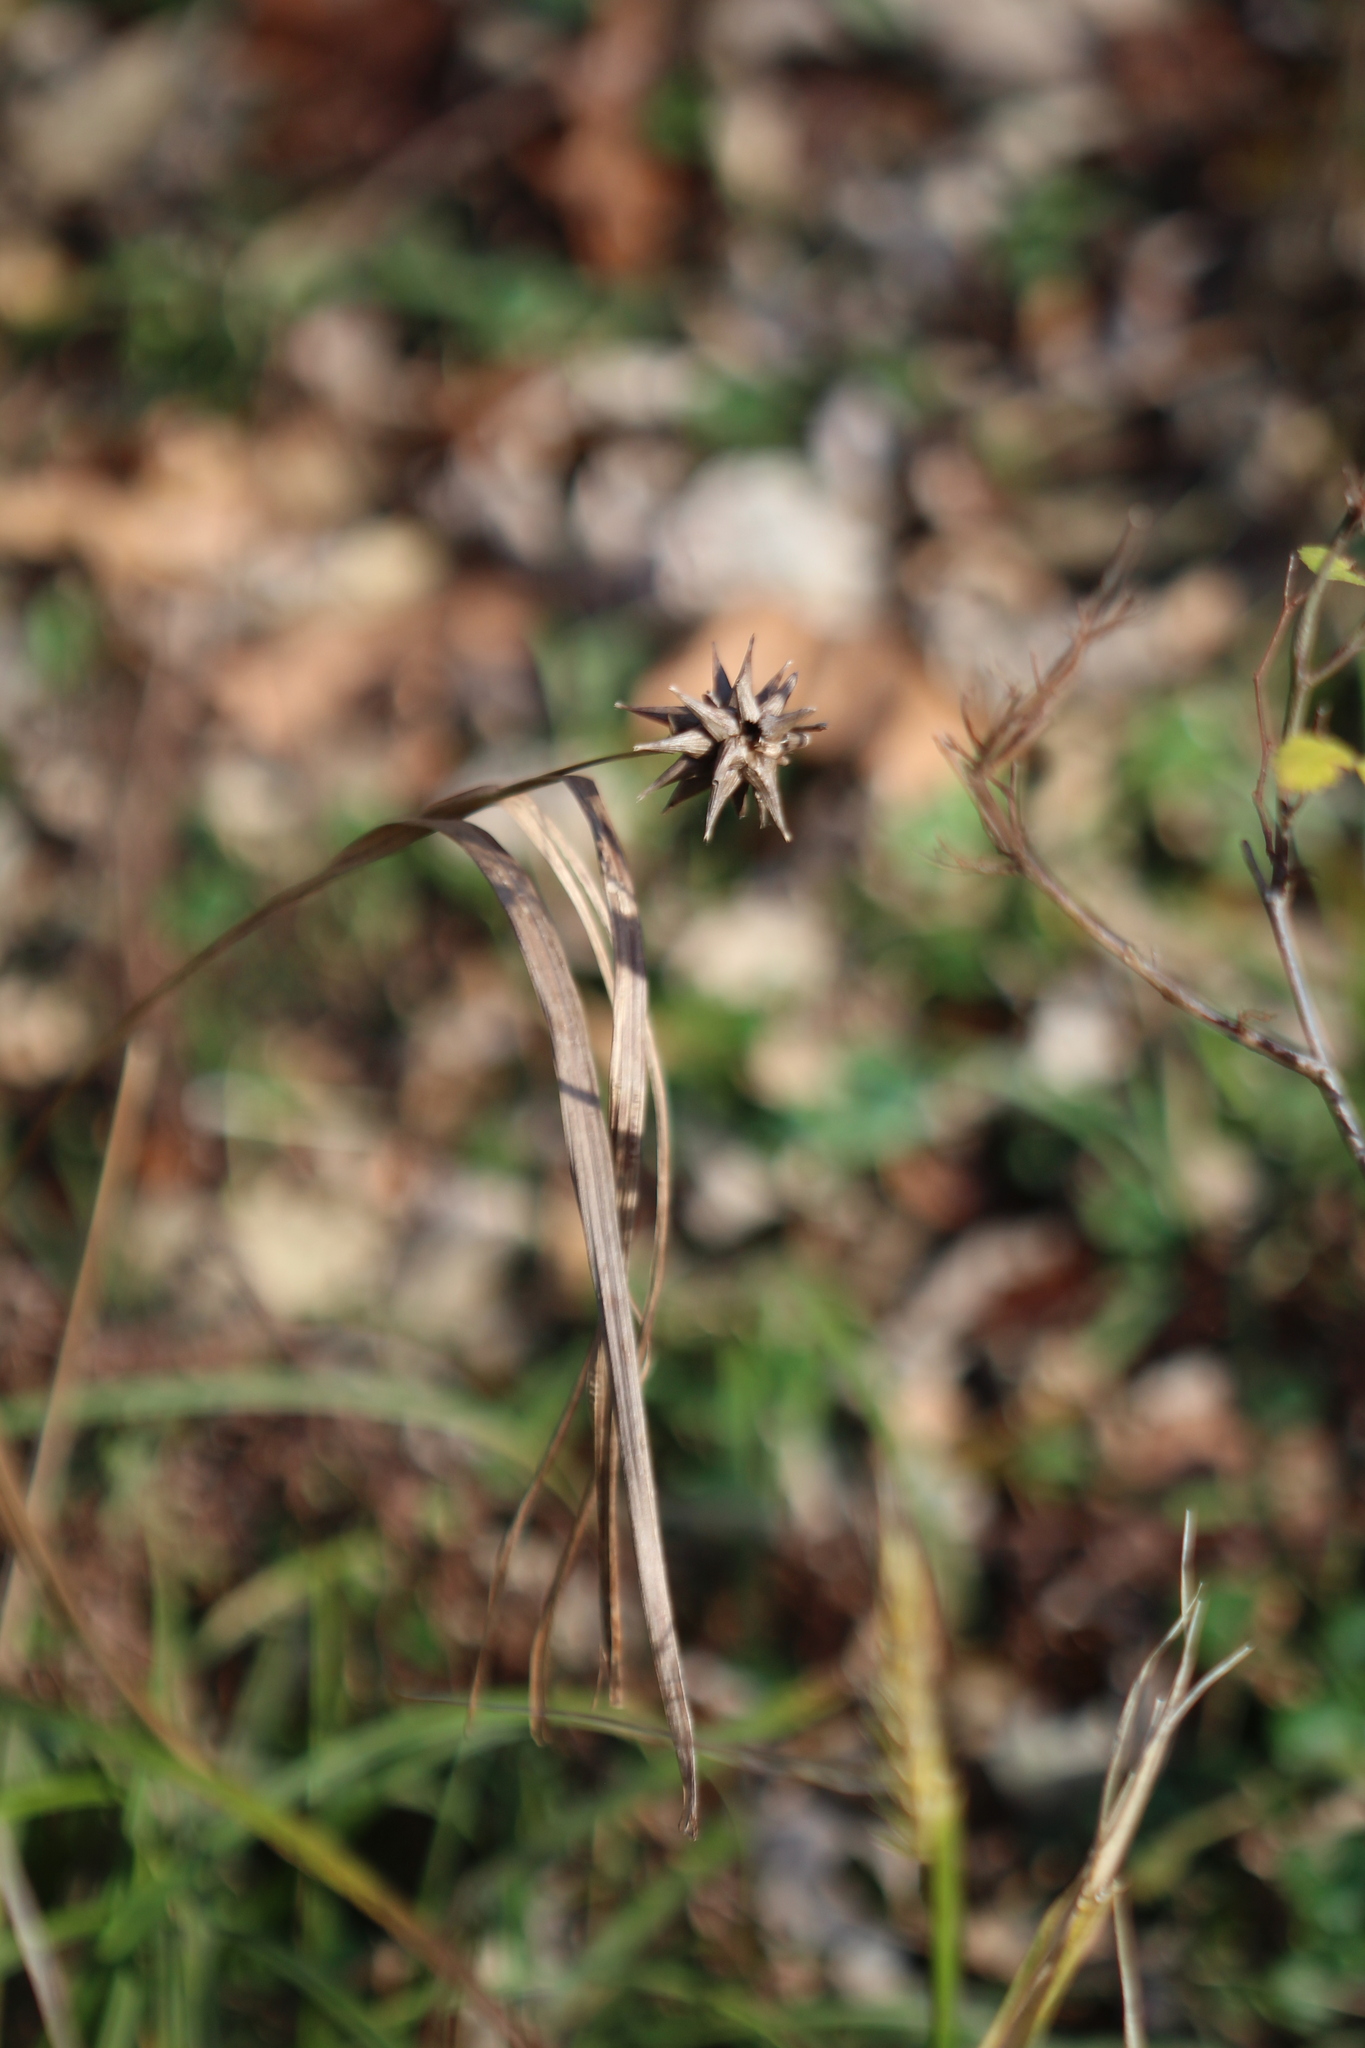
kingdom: Plantae
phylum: Tracheophyta
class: Liliopsida
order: Poales
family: Cyperaceae
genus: Carex
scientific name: Carex grayi
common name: Asa gray's sedge
